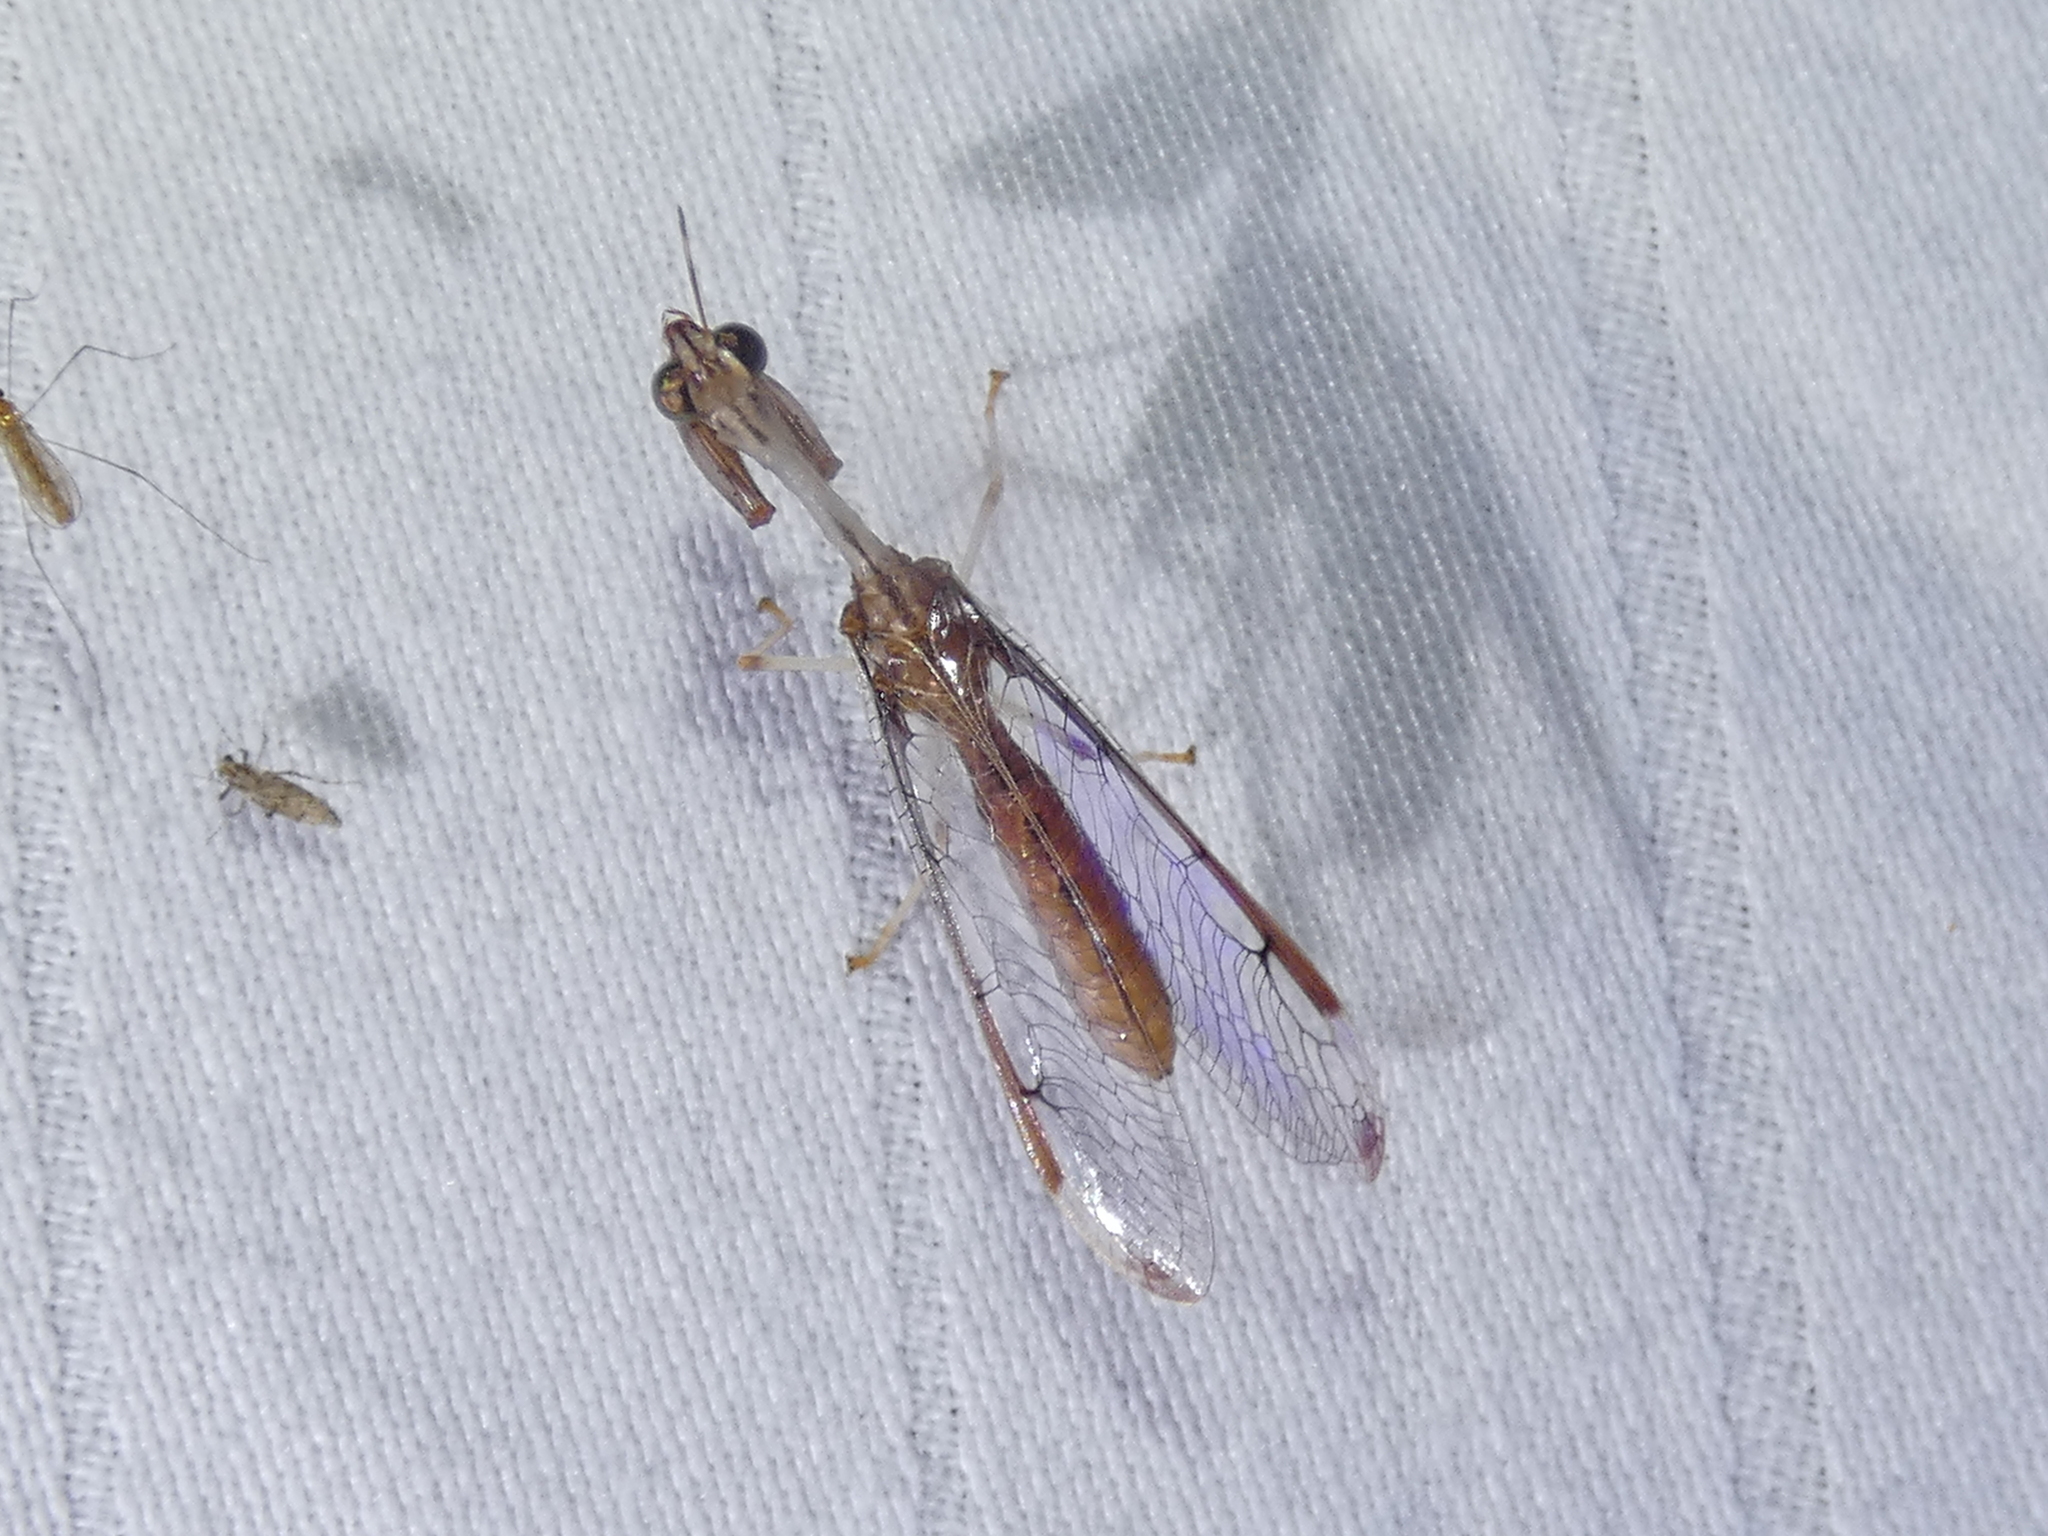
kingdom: Animalia
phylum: Arthropoda
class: Insecta
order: Neuroptera
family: Mantispidae
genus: Dicromantispa
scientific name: Dicromantispa interrupta
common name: Four-spotted mantidfly
